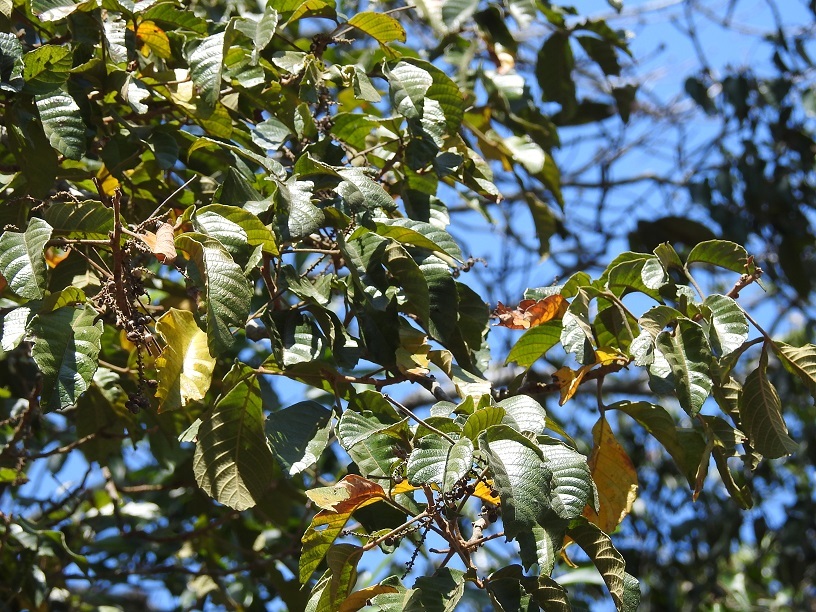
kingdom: Plantae
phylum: Tracheophyta
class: Magnoliopsida
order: Sapindales
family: Sapindaceae
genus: Allophylus
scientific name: Allophylus cominia
